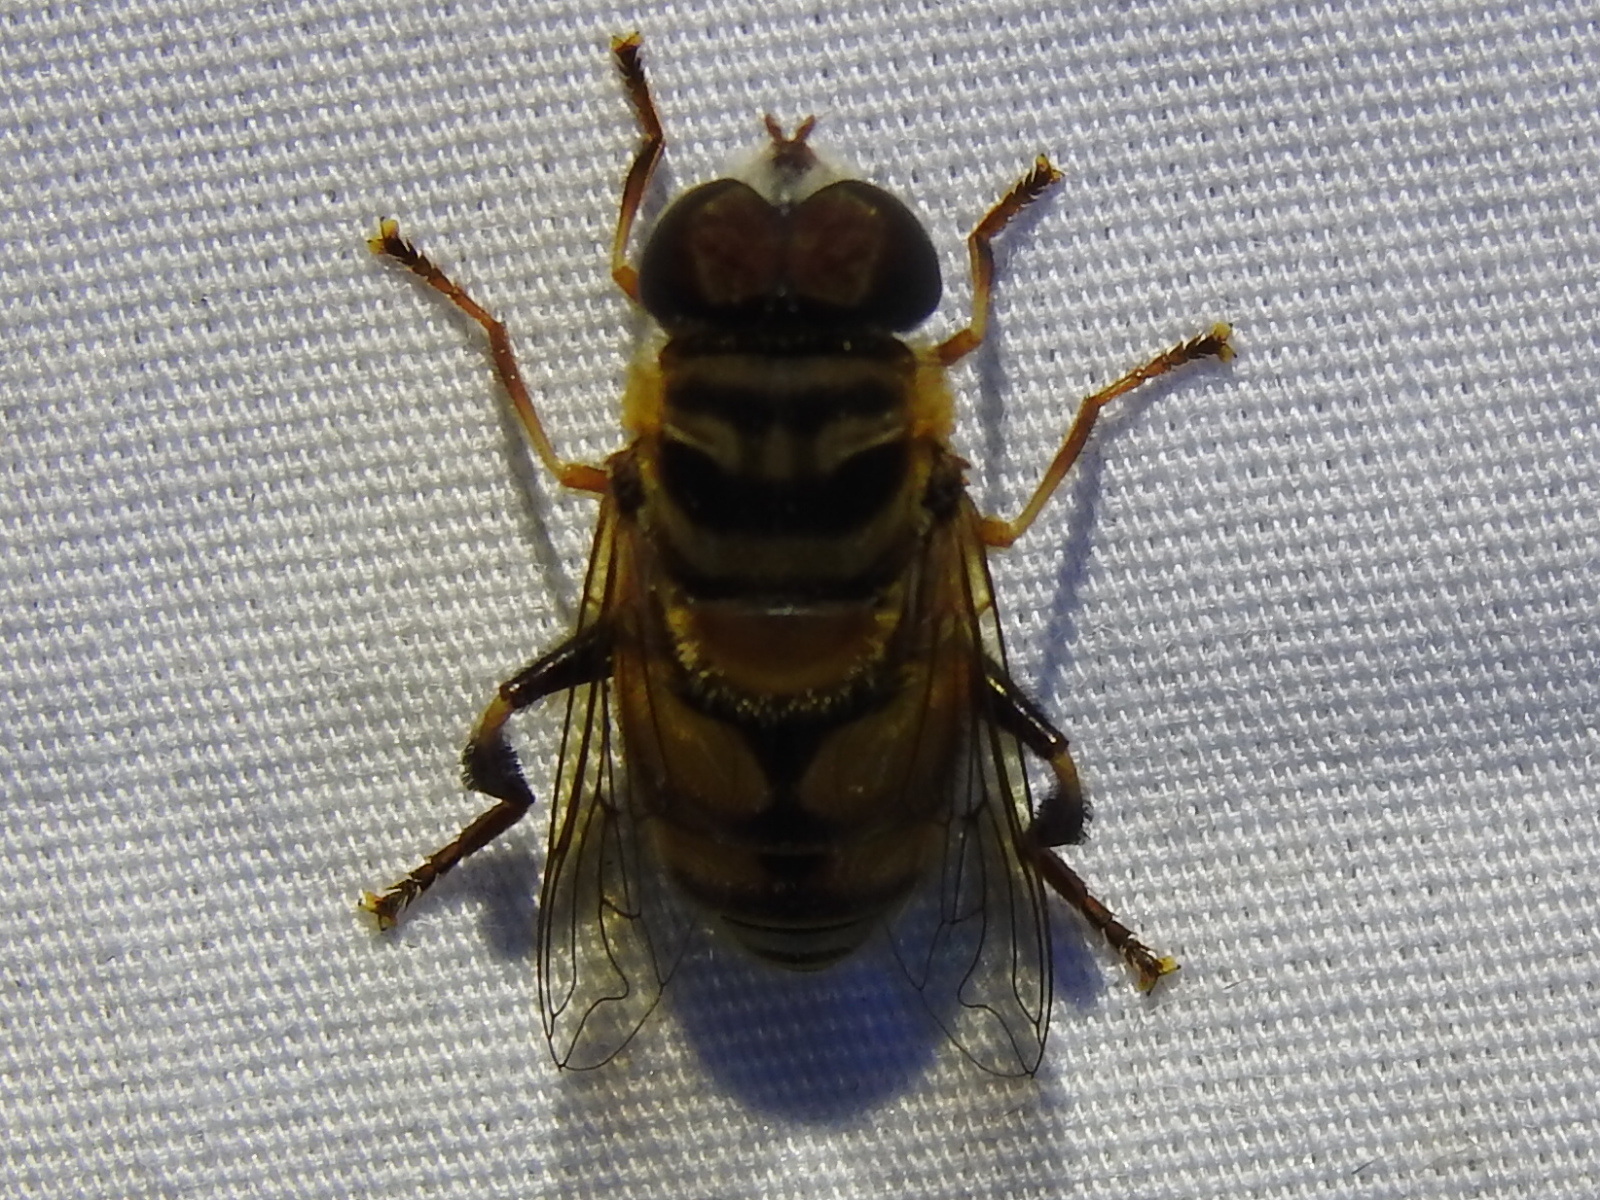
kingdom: Animalia
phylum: Arthropoda
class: Insecta
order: Diptera
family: Syrphidae
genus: Palpada
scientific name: Palpada vinetorum
